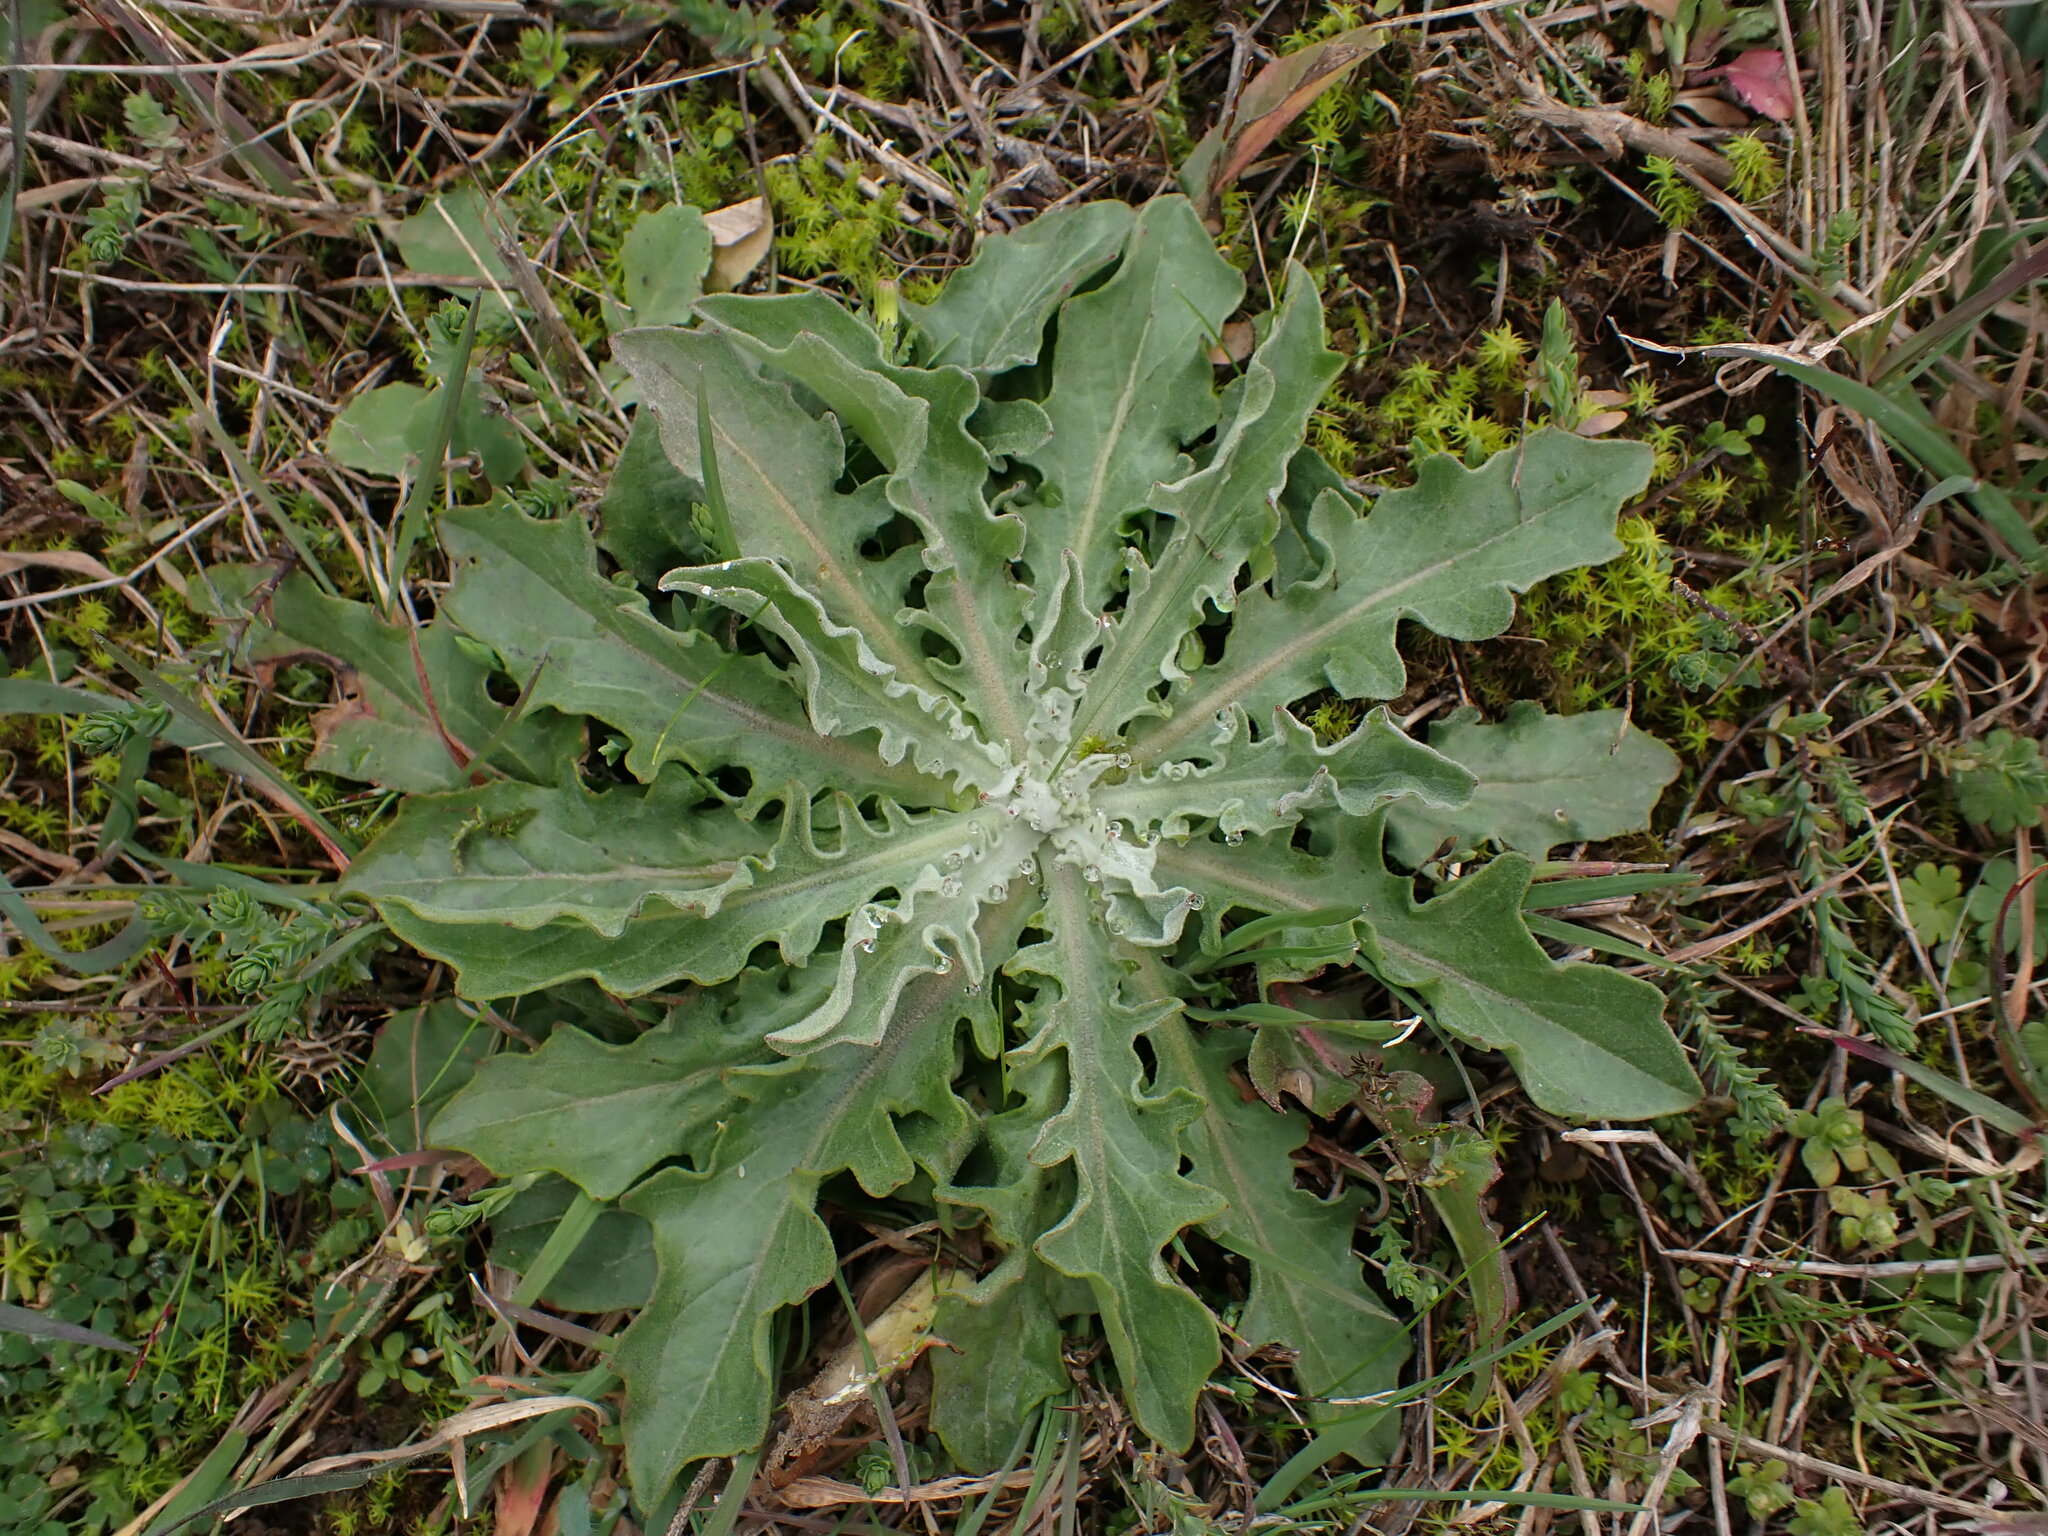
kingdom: Plantae
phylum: Tracheophyta
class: Magnoliopsida
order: Asterales
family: Asteraceae
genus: Andryala
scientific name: Andryala integrifolia
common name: Common andryala
